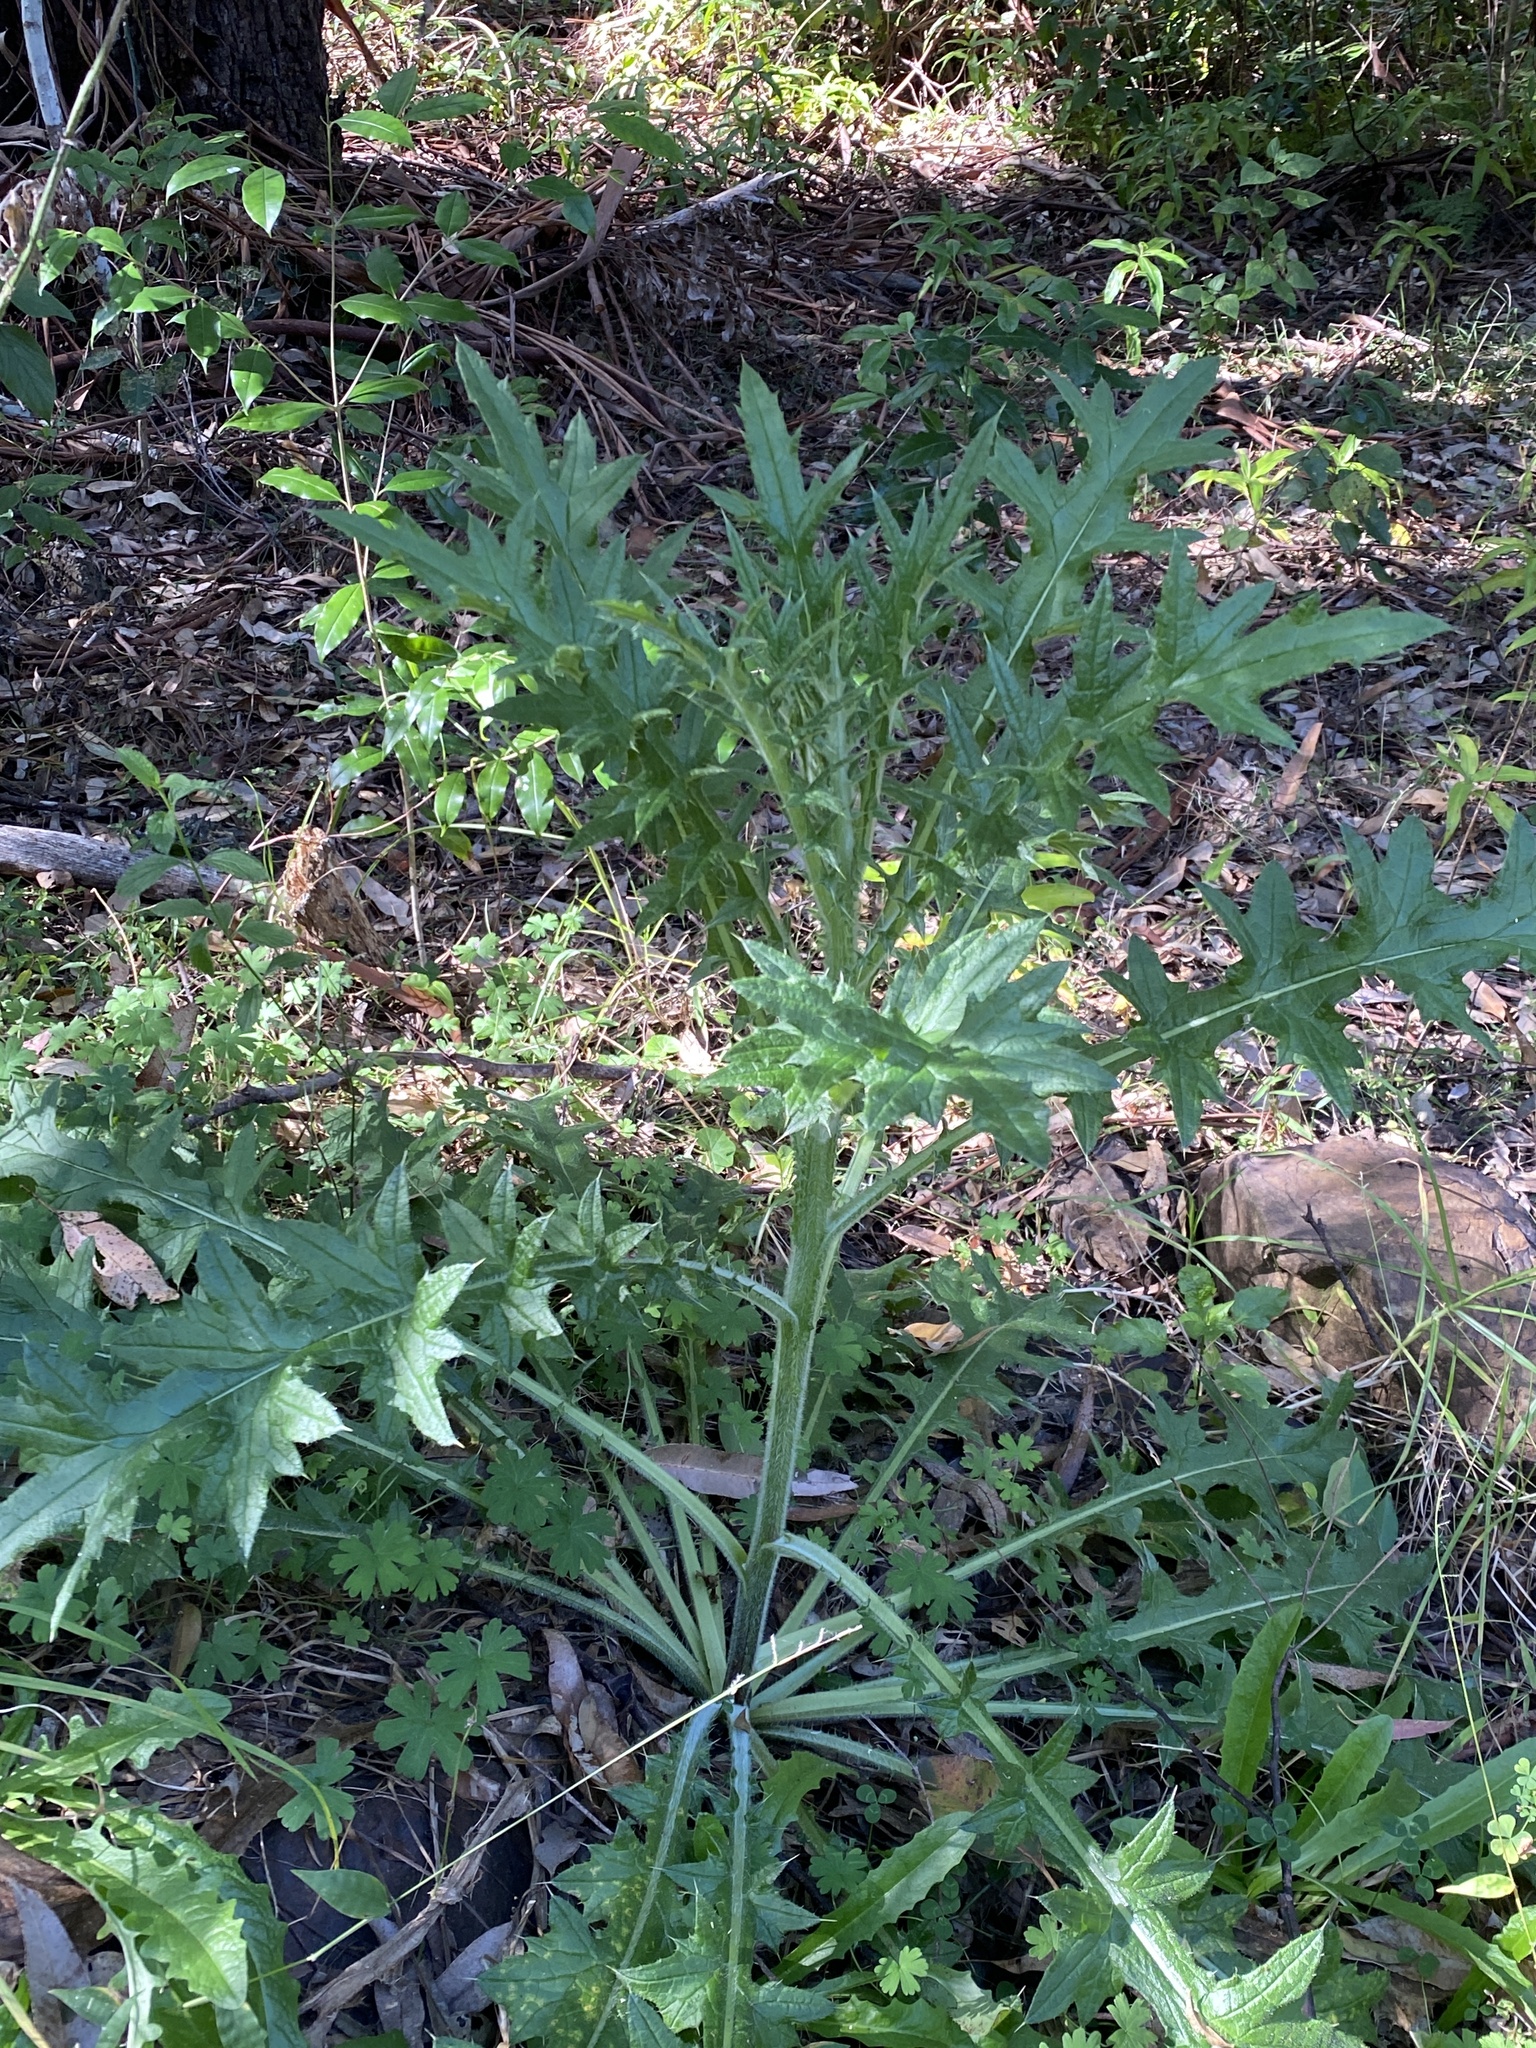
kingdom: Plantae
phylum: Tracheophyta
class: Magnoliopsida
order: Asterales
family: Asteraceae
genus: Cirsium
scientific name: Cirsium vulgare
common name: Bull thistle
